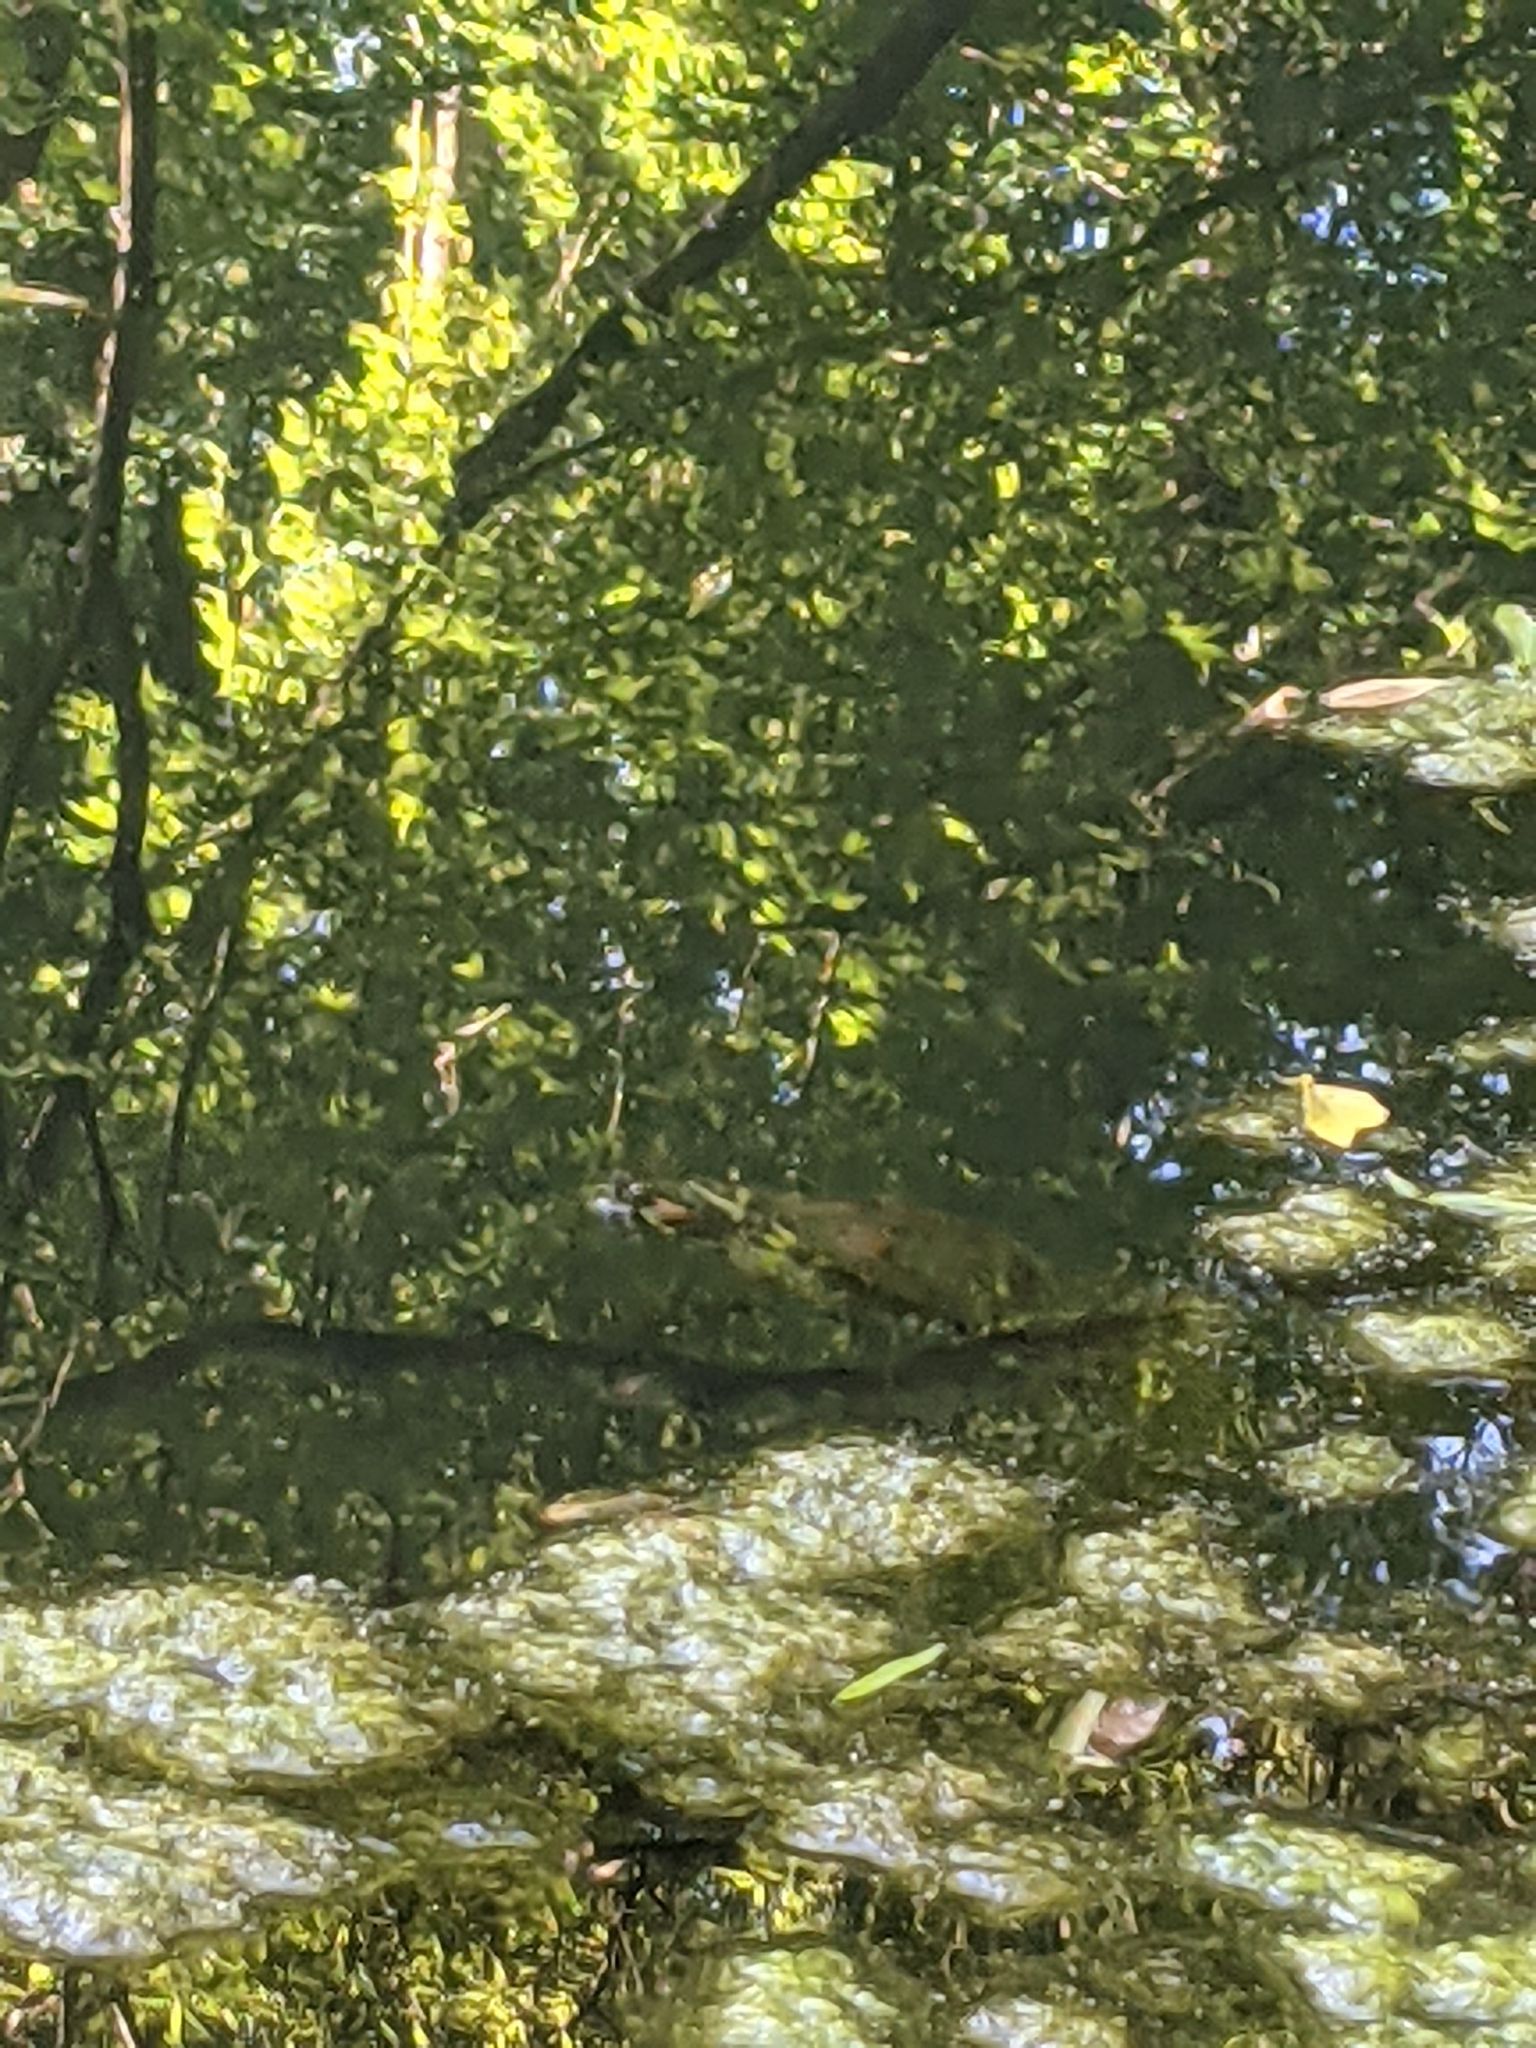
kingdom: Animalia
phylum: Chordata
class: Testudines
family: Emydidae
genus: Trachemys
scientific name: Trachemys scripta
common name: Slider
